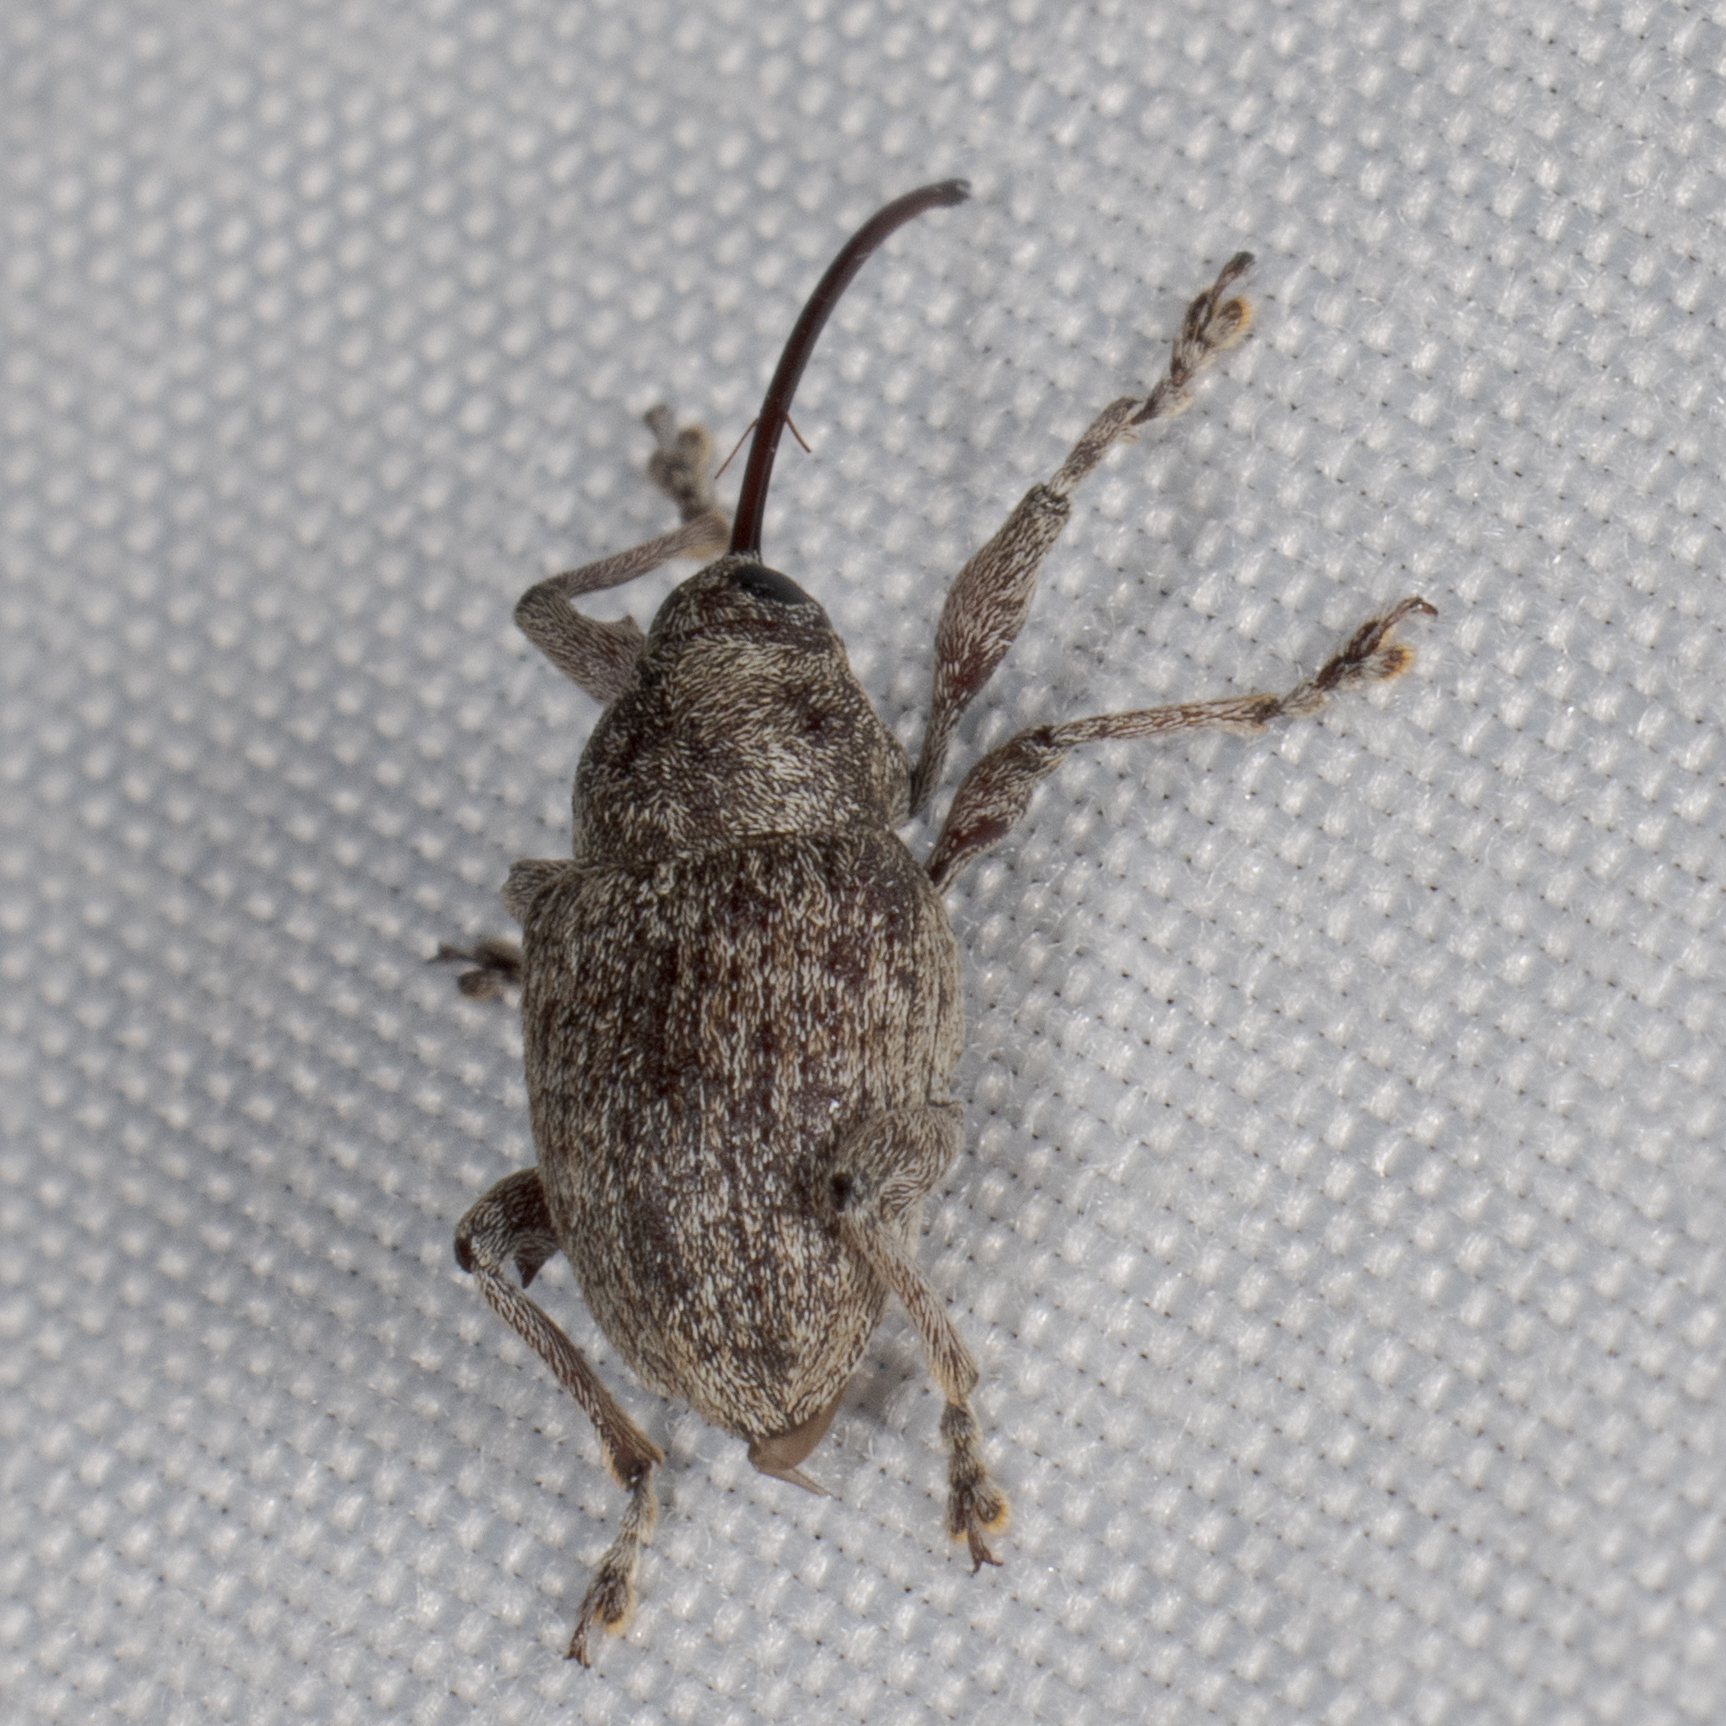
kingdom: Animalia
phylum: Arthropoda
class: Insecta
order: Coleoptera
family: Curculionidae
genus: Curculio
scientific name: Curculio
